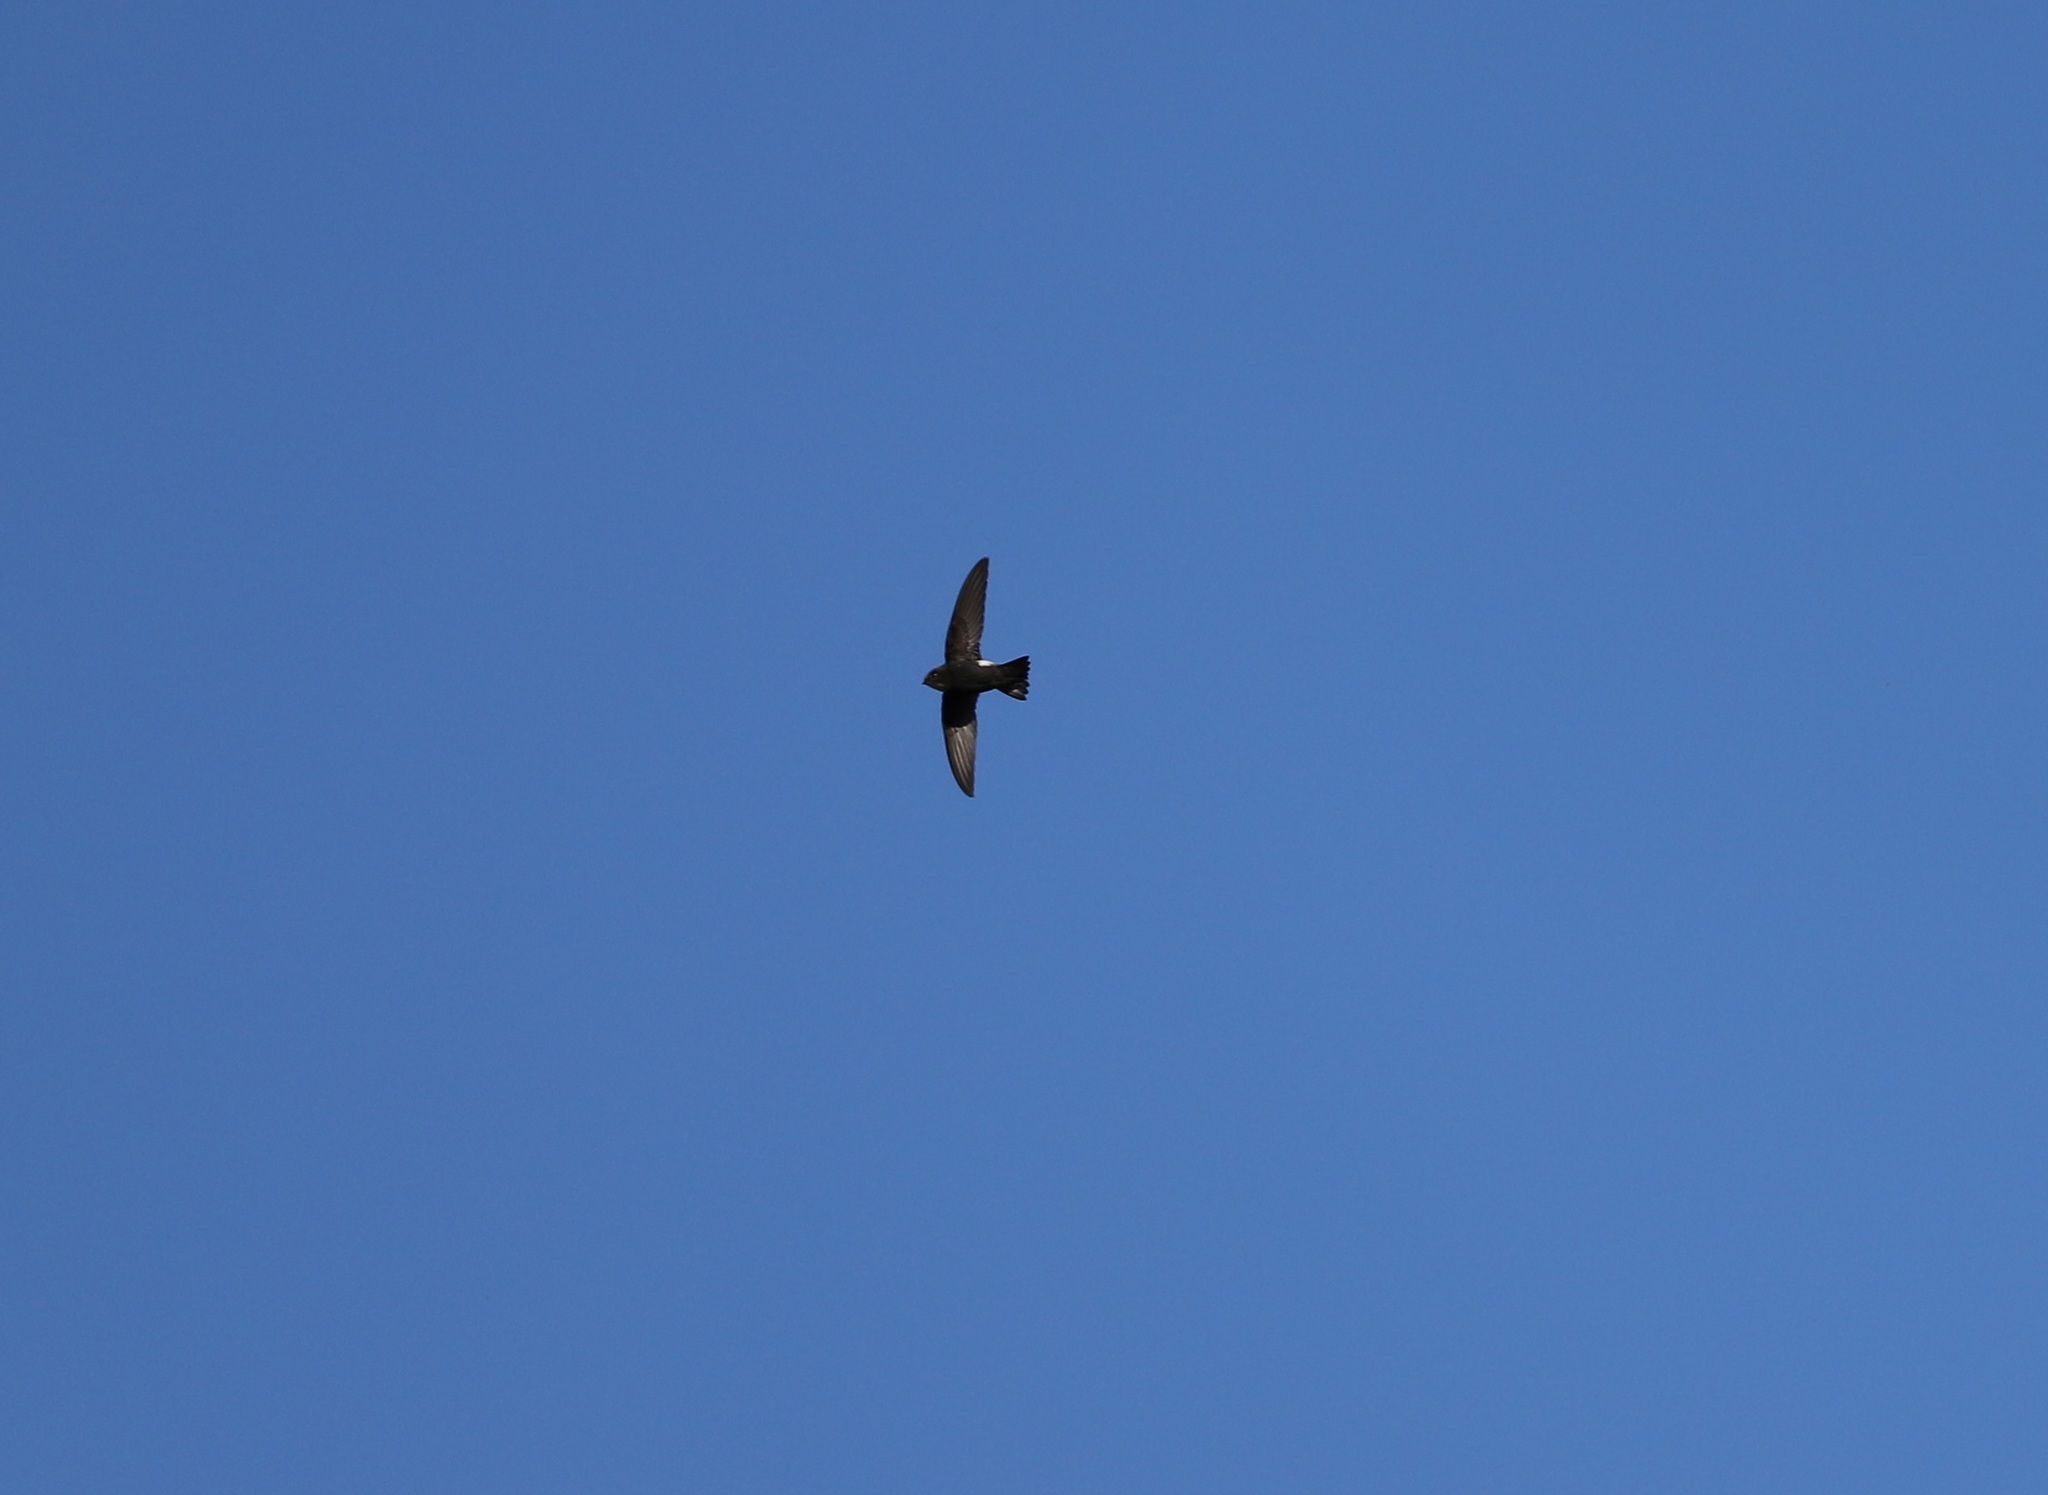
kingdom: Animalia
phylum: Chordata
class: Aves
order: Apodiformes
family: Apodidae
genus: Apus
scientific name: Apus nipalensis
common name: House swift
